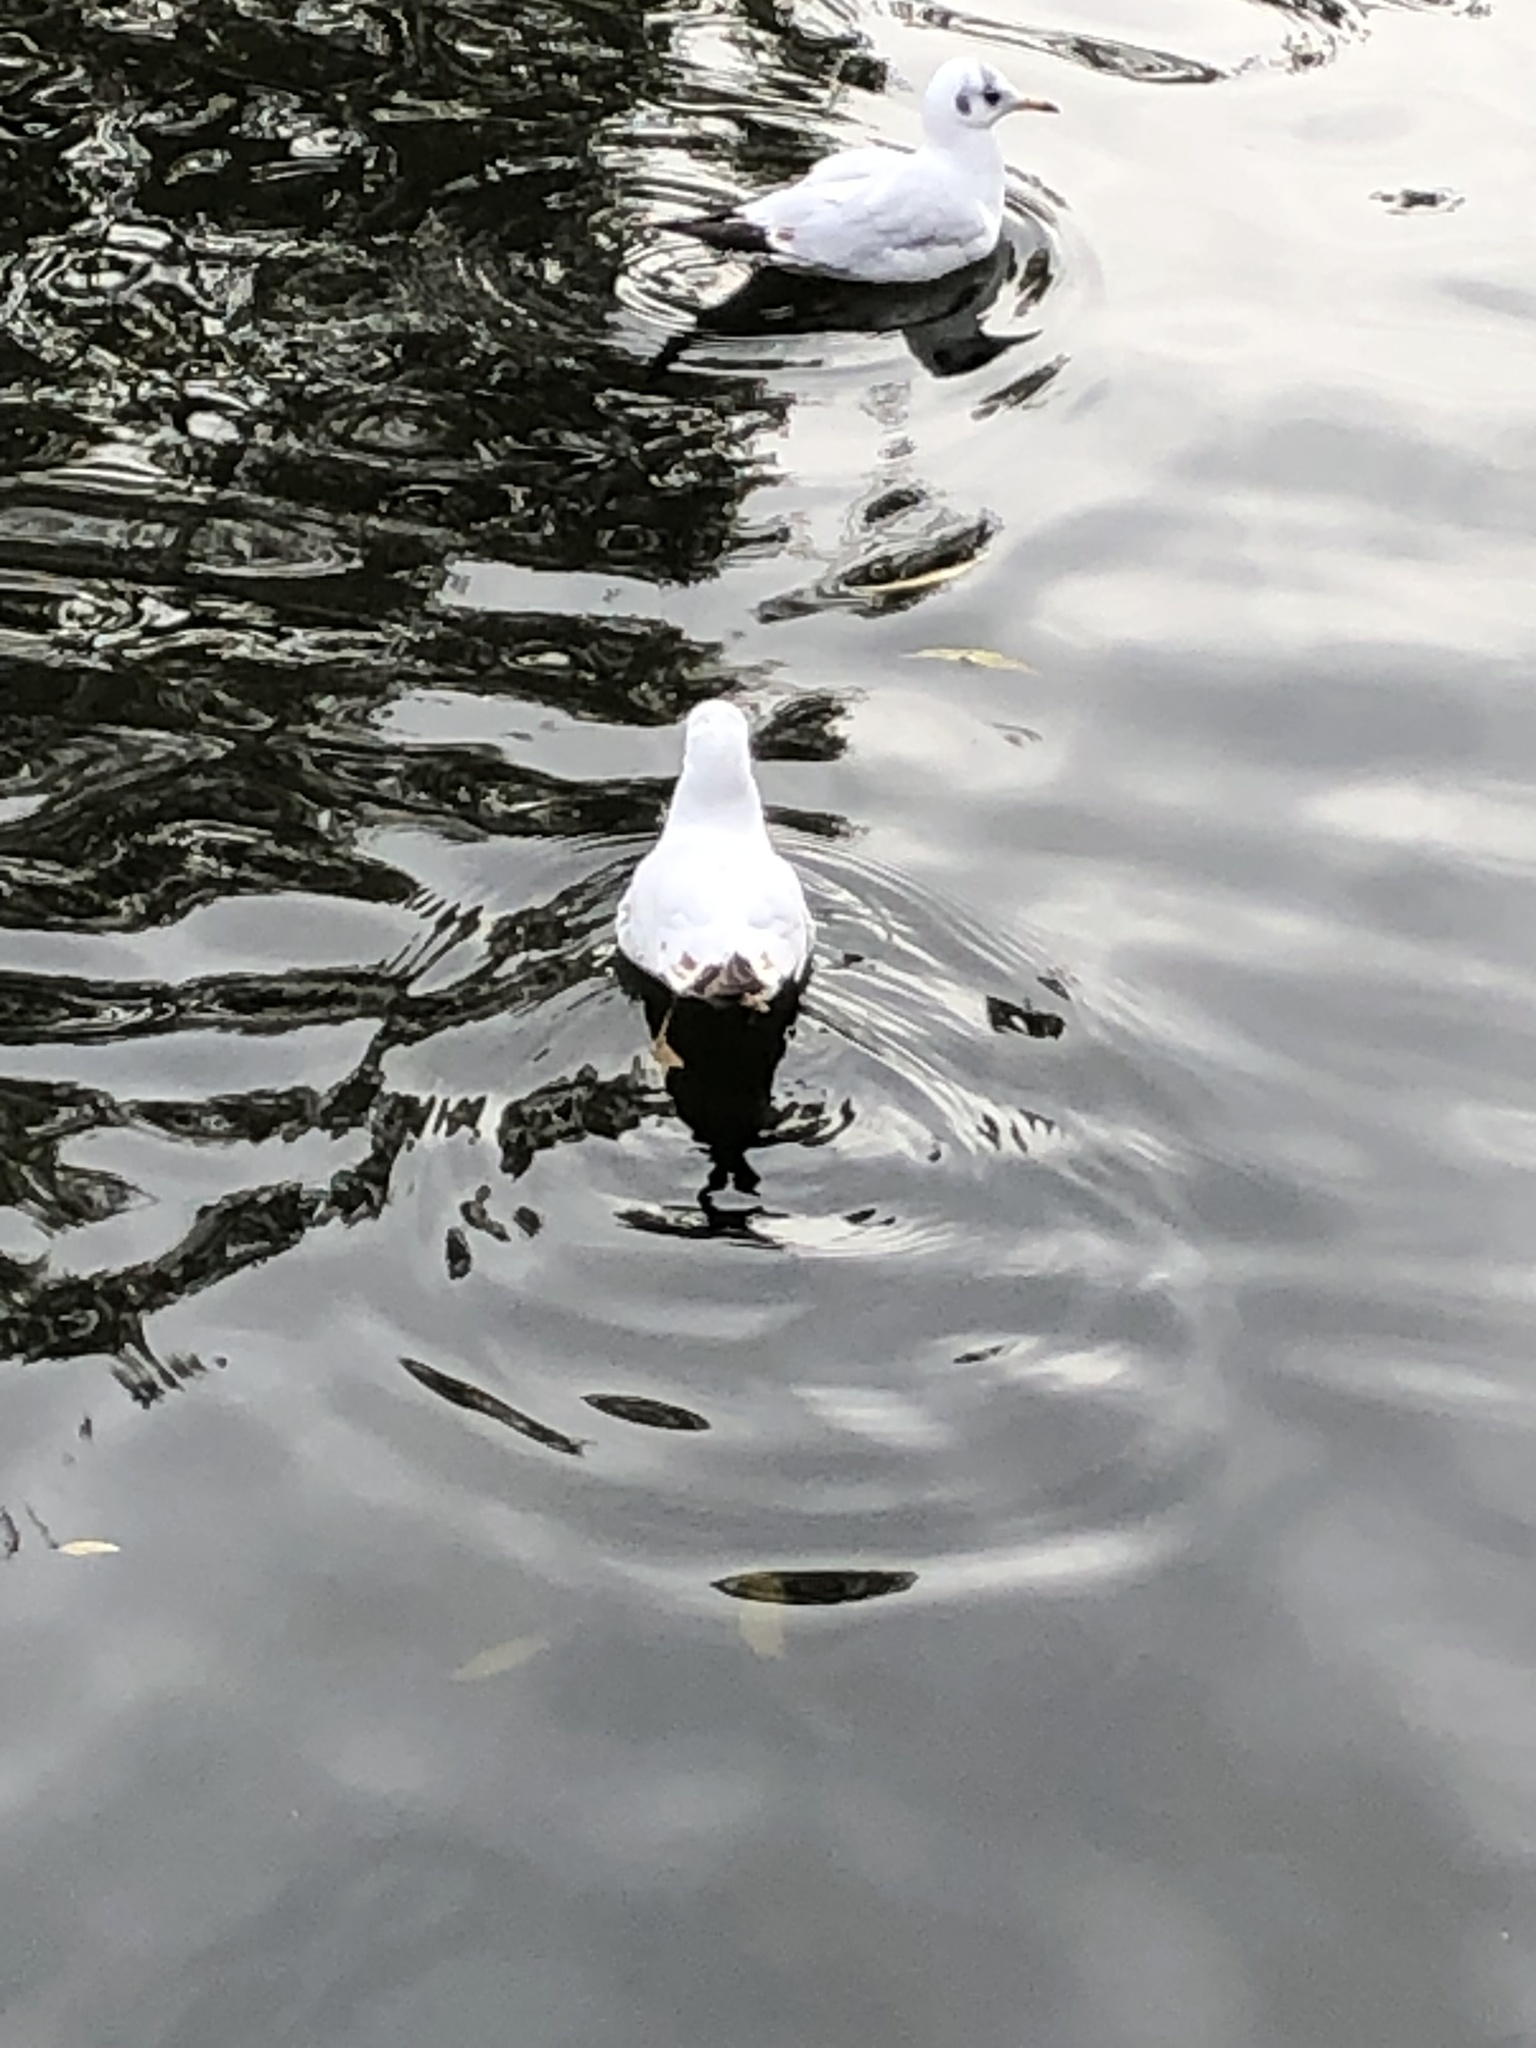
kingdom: Animalia
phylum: Chordata
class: Aves
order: Charadriiformes
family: Laridae
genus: Chroicocephalus
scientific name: Chroicocephalus ridibundus
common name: Black-headed gull
